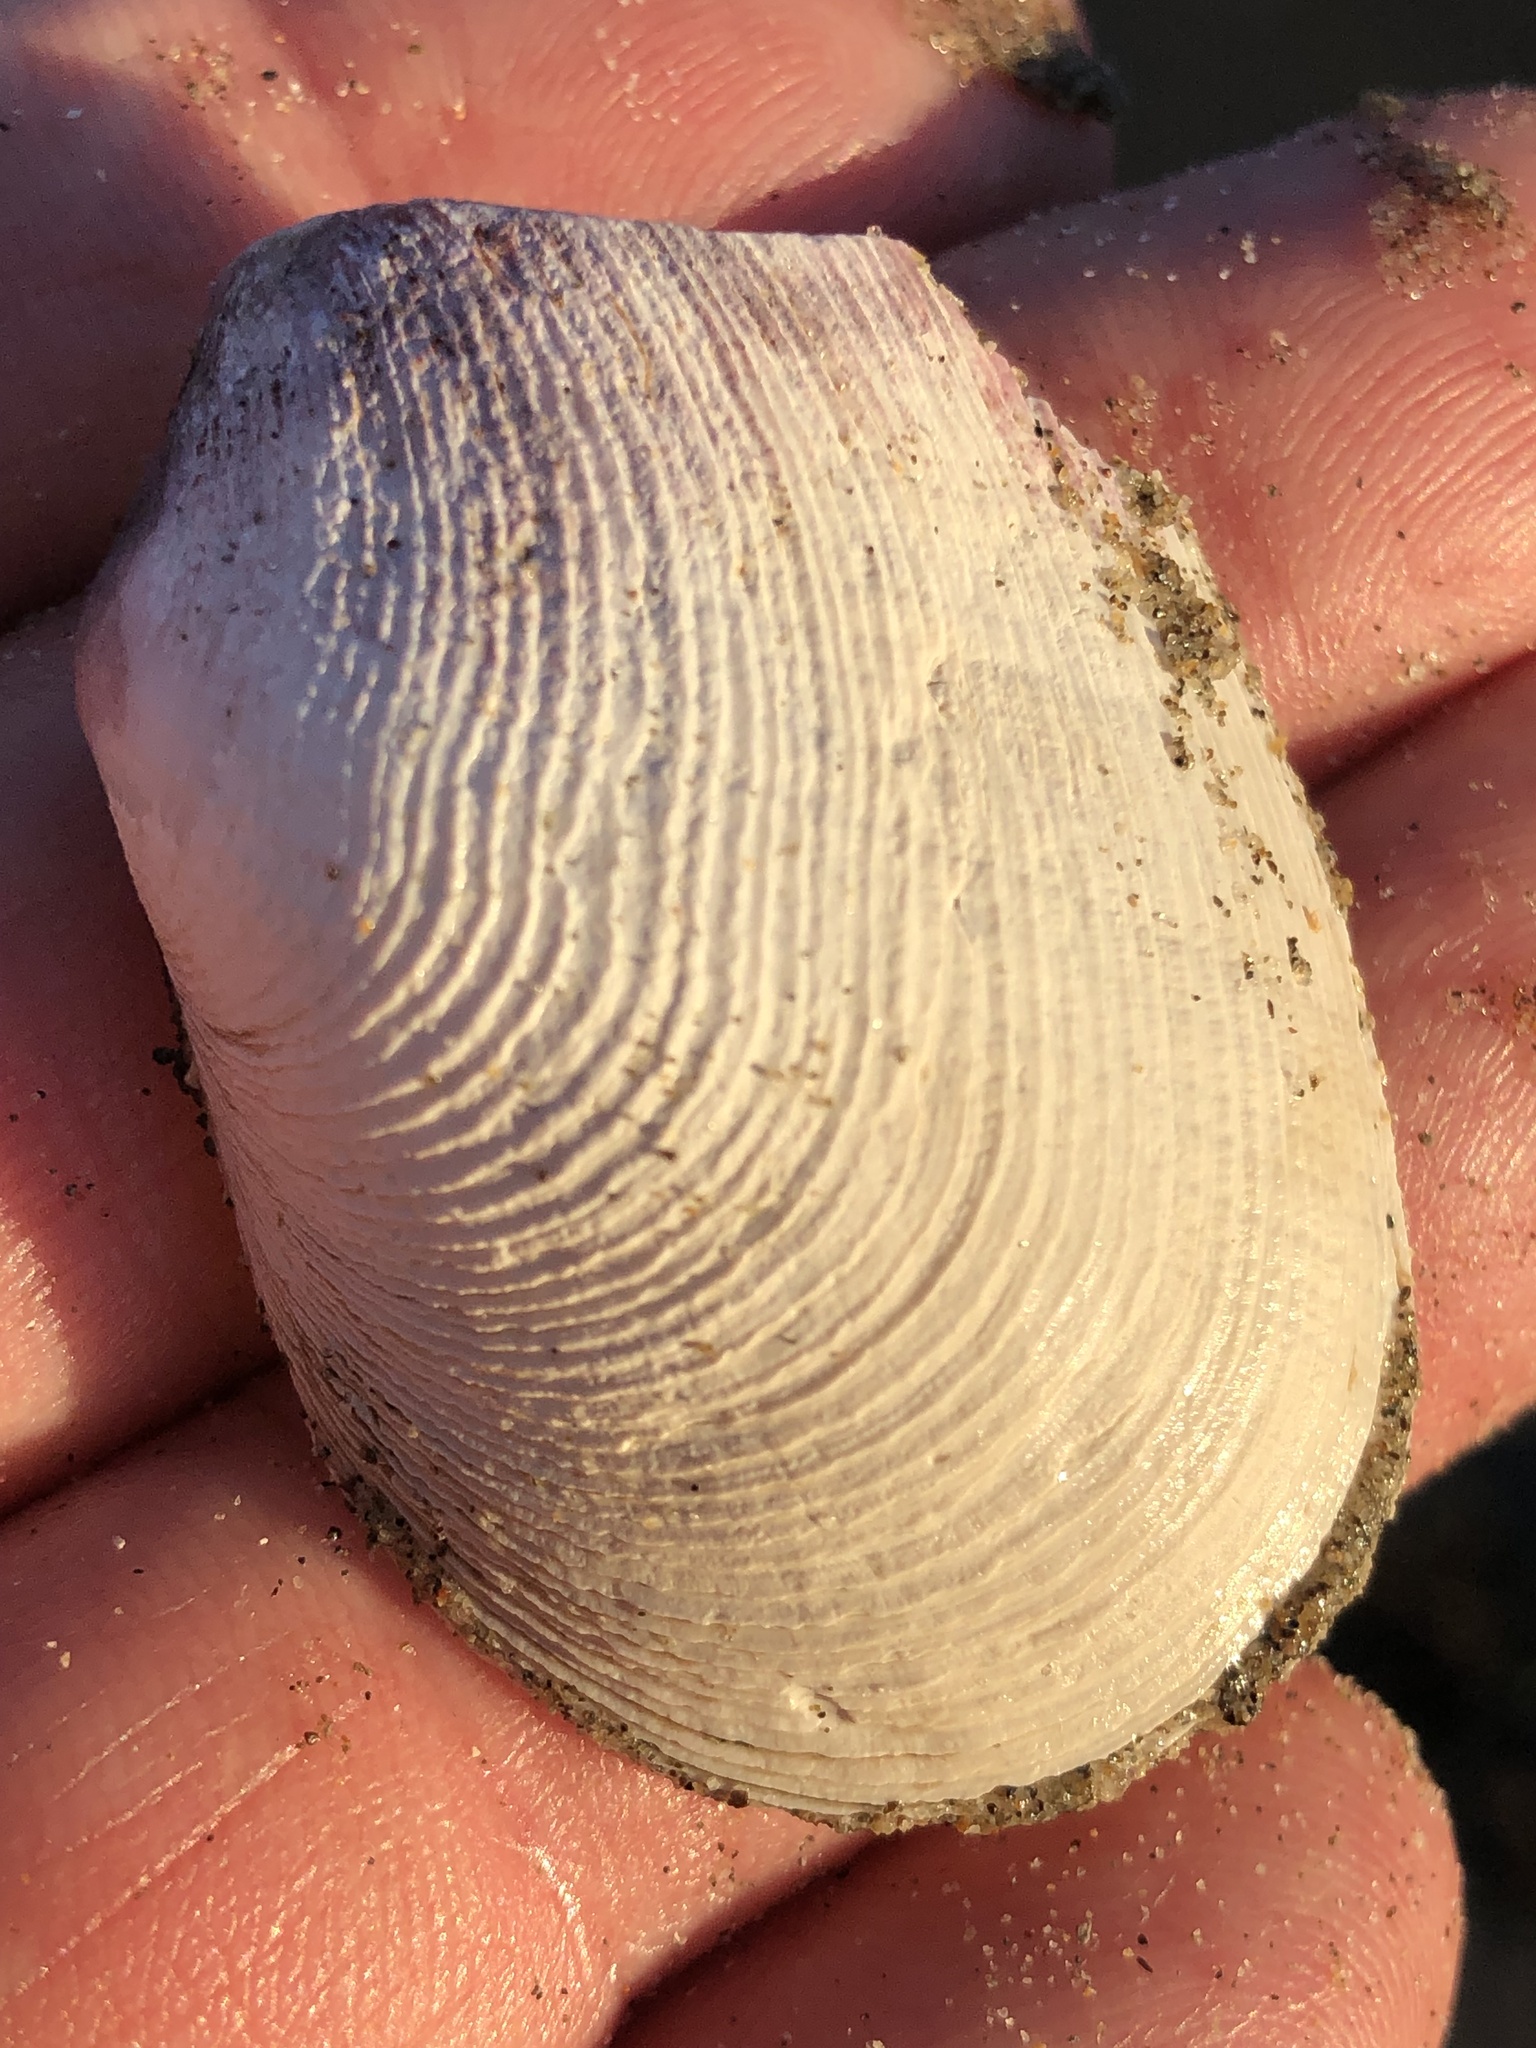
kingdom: Animalia
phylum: Mollusca
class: Bivalvia
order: Myida
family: Myidae
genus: Platyodon
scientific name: Platyodon cancellatus
